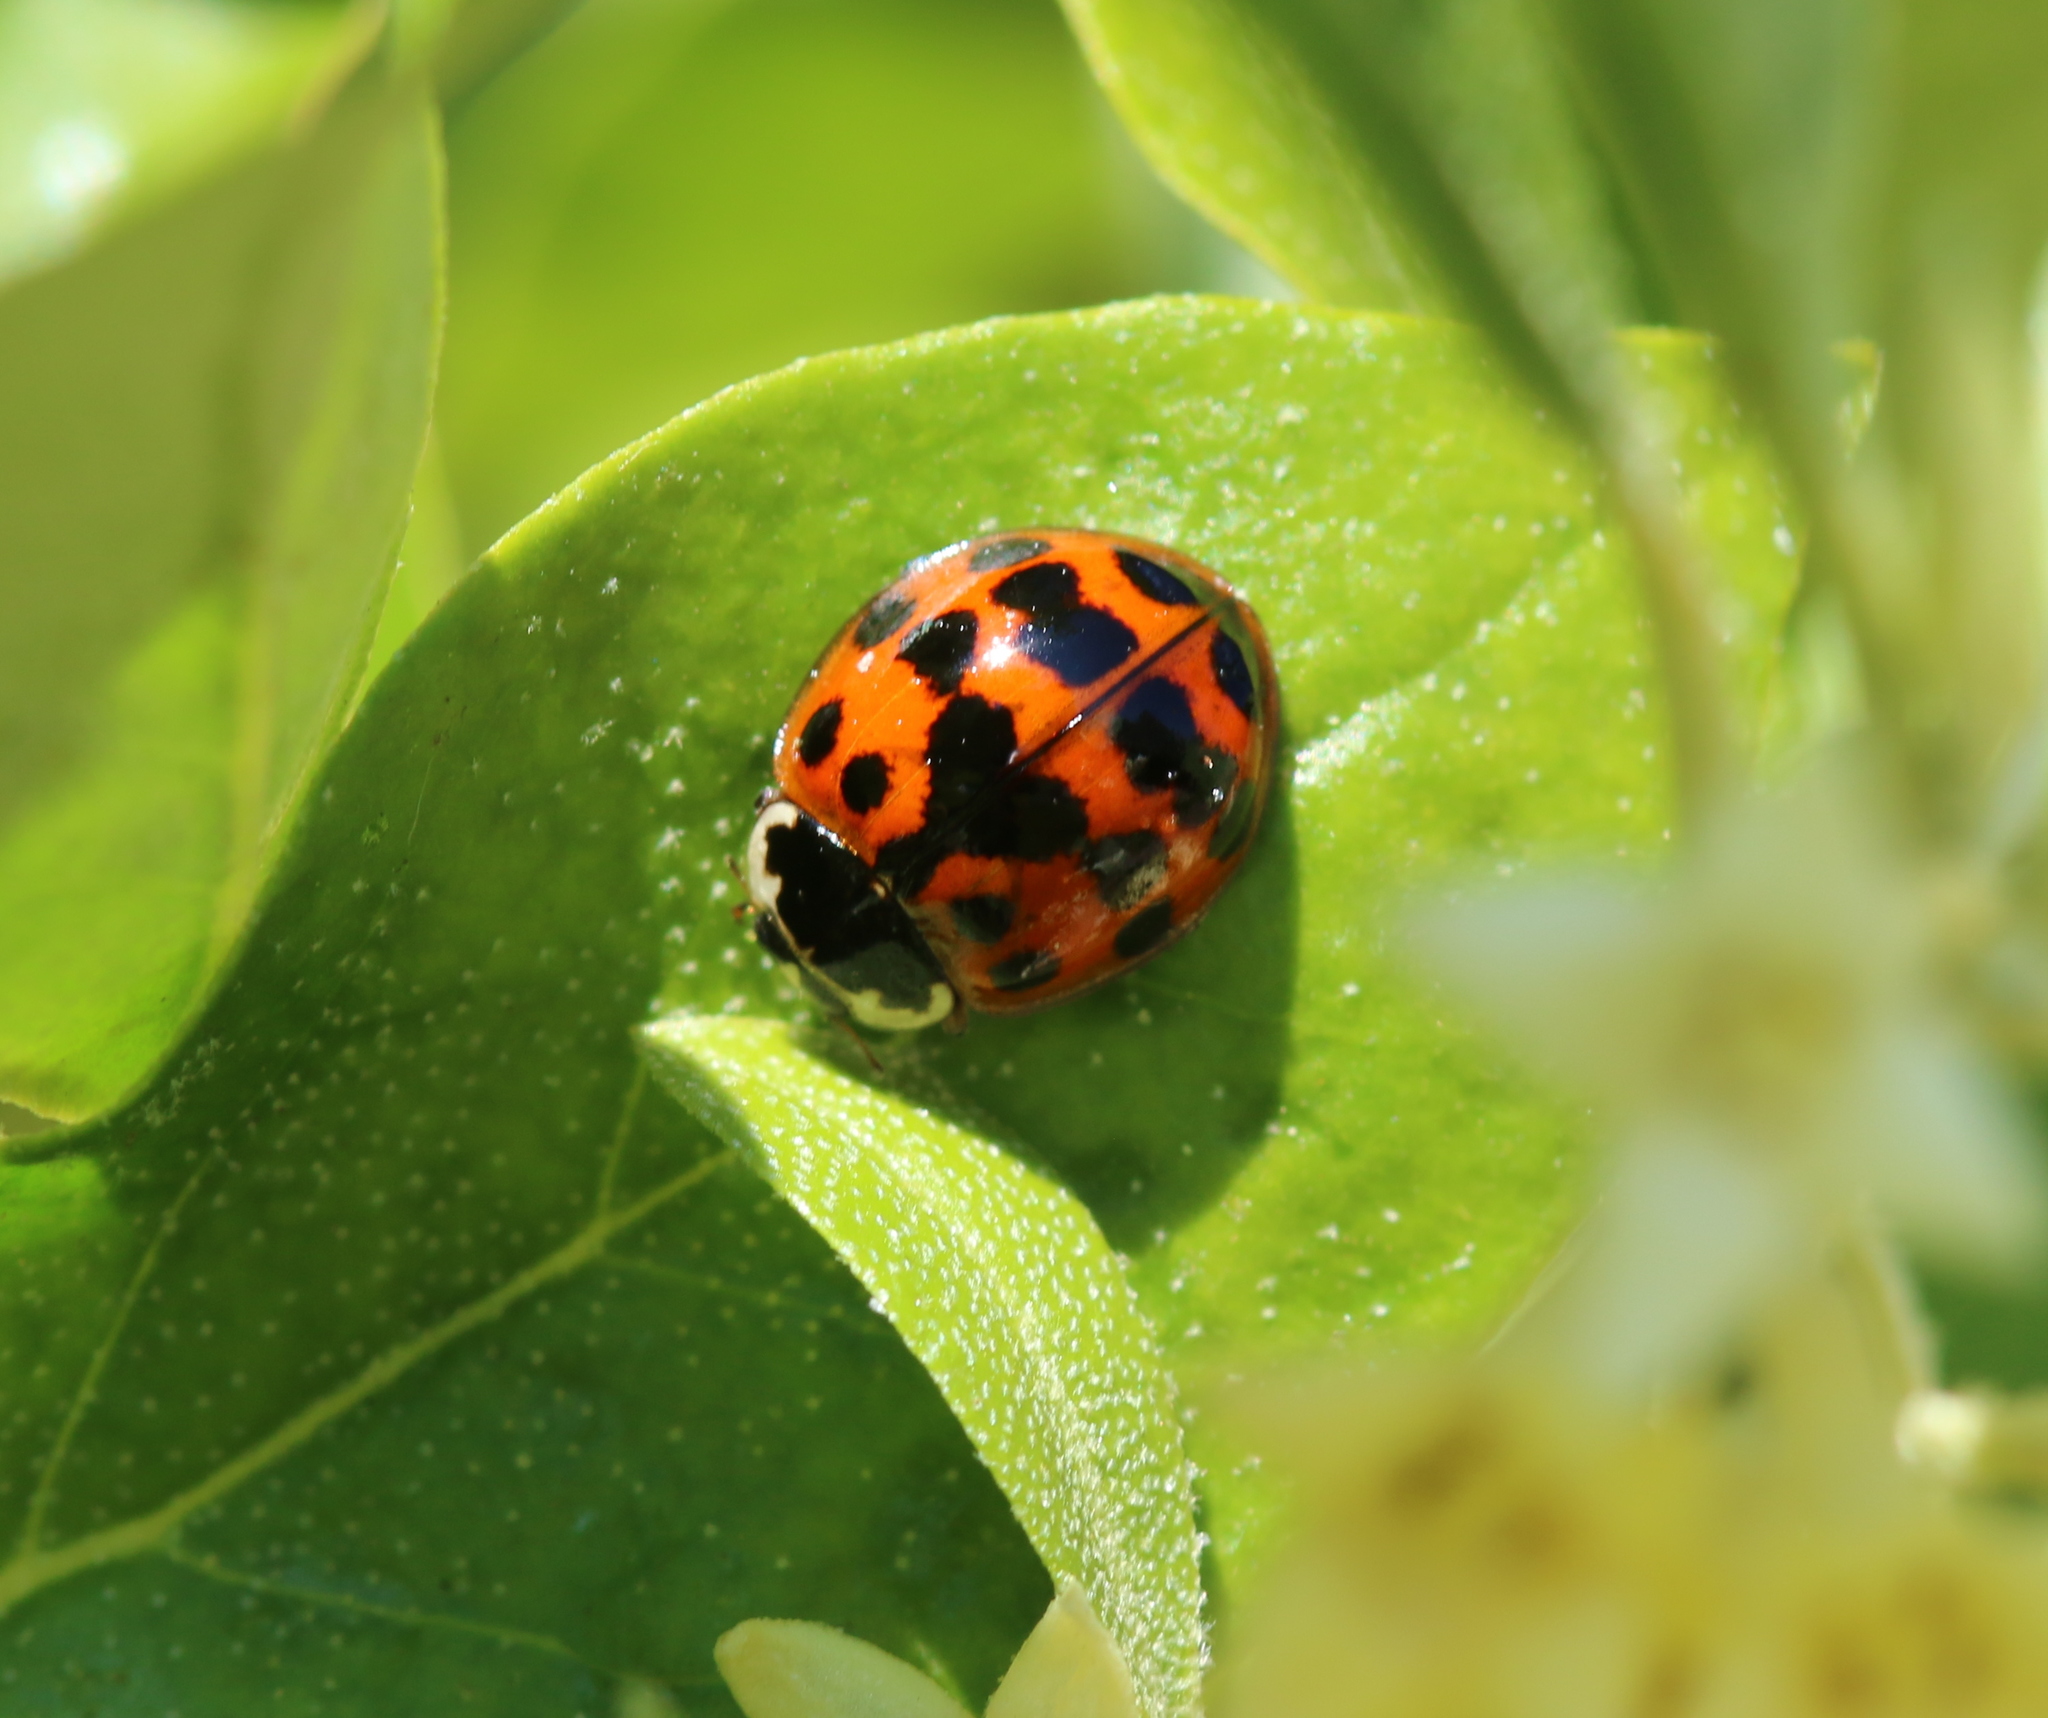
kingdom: Animalia
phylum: Arthropoda
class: Insecta
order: Coleoptera
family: Coccinellidae
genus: Harmonia
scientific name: Harmonia axyridis
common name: Harlequin ladybird
